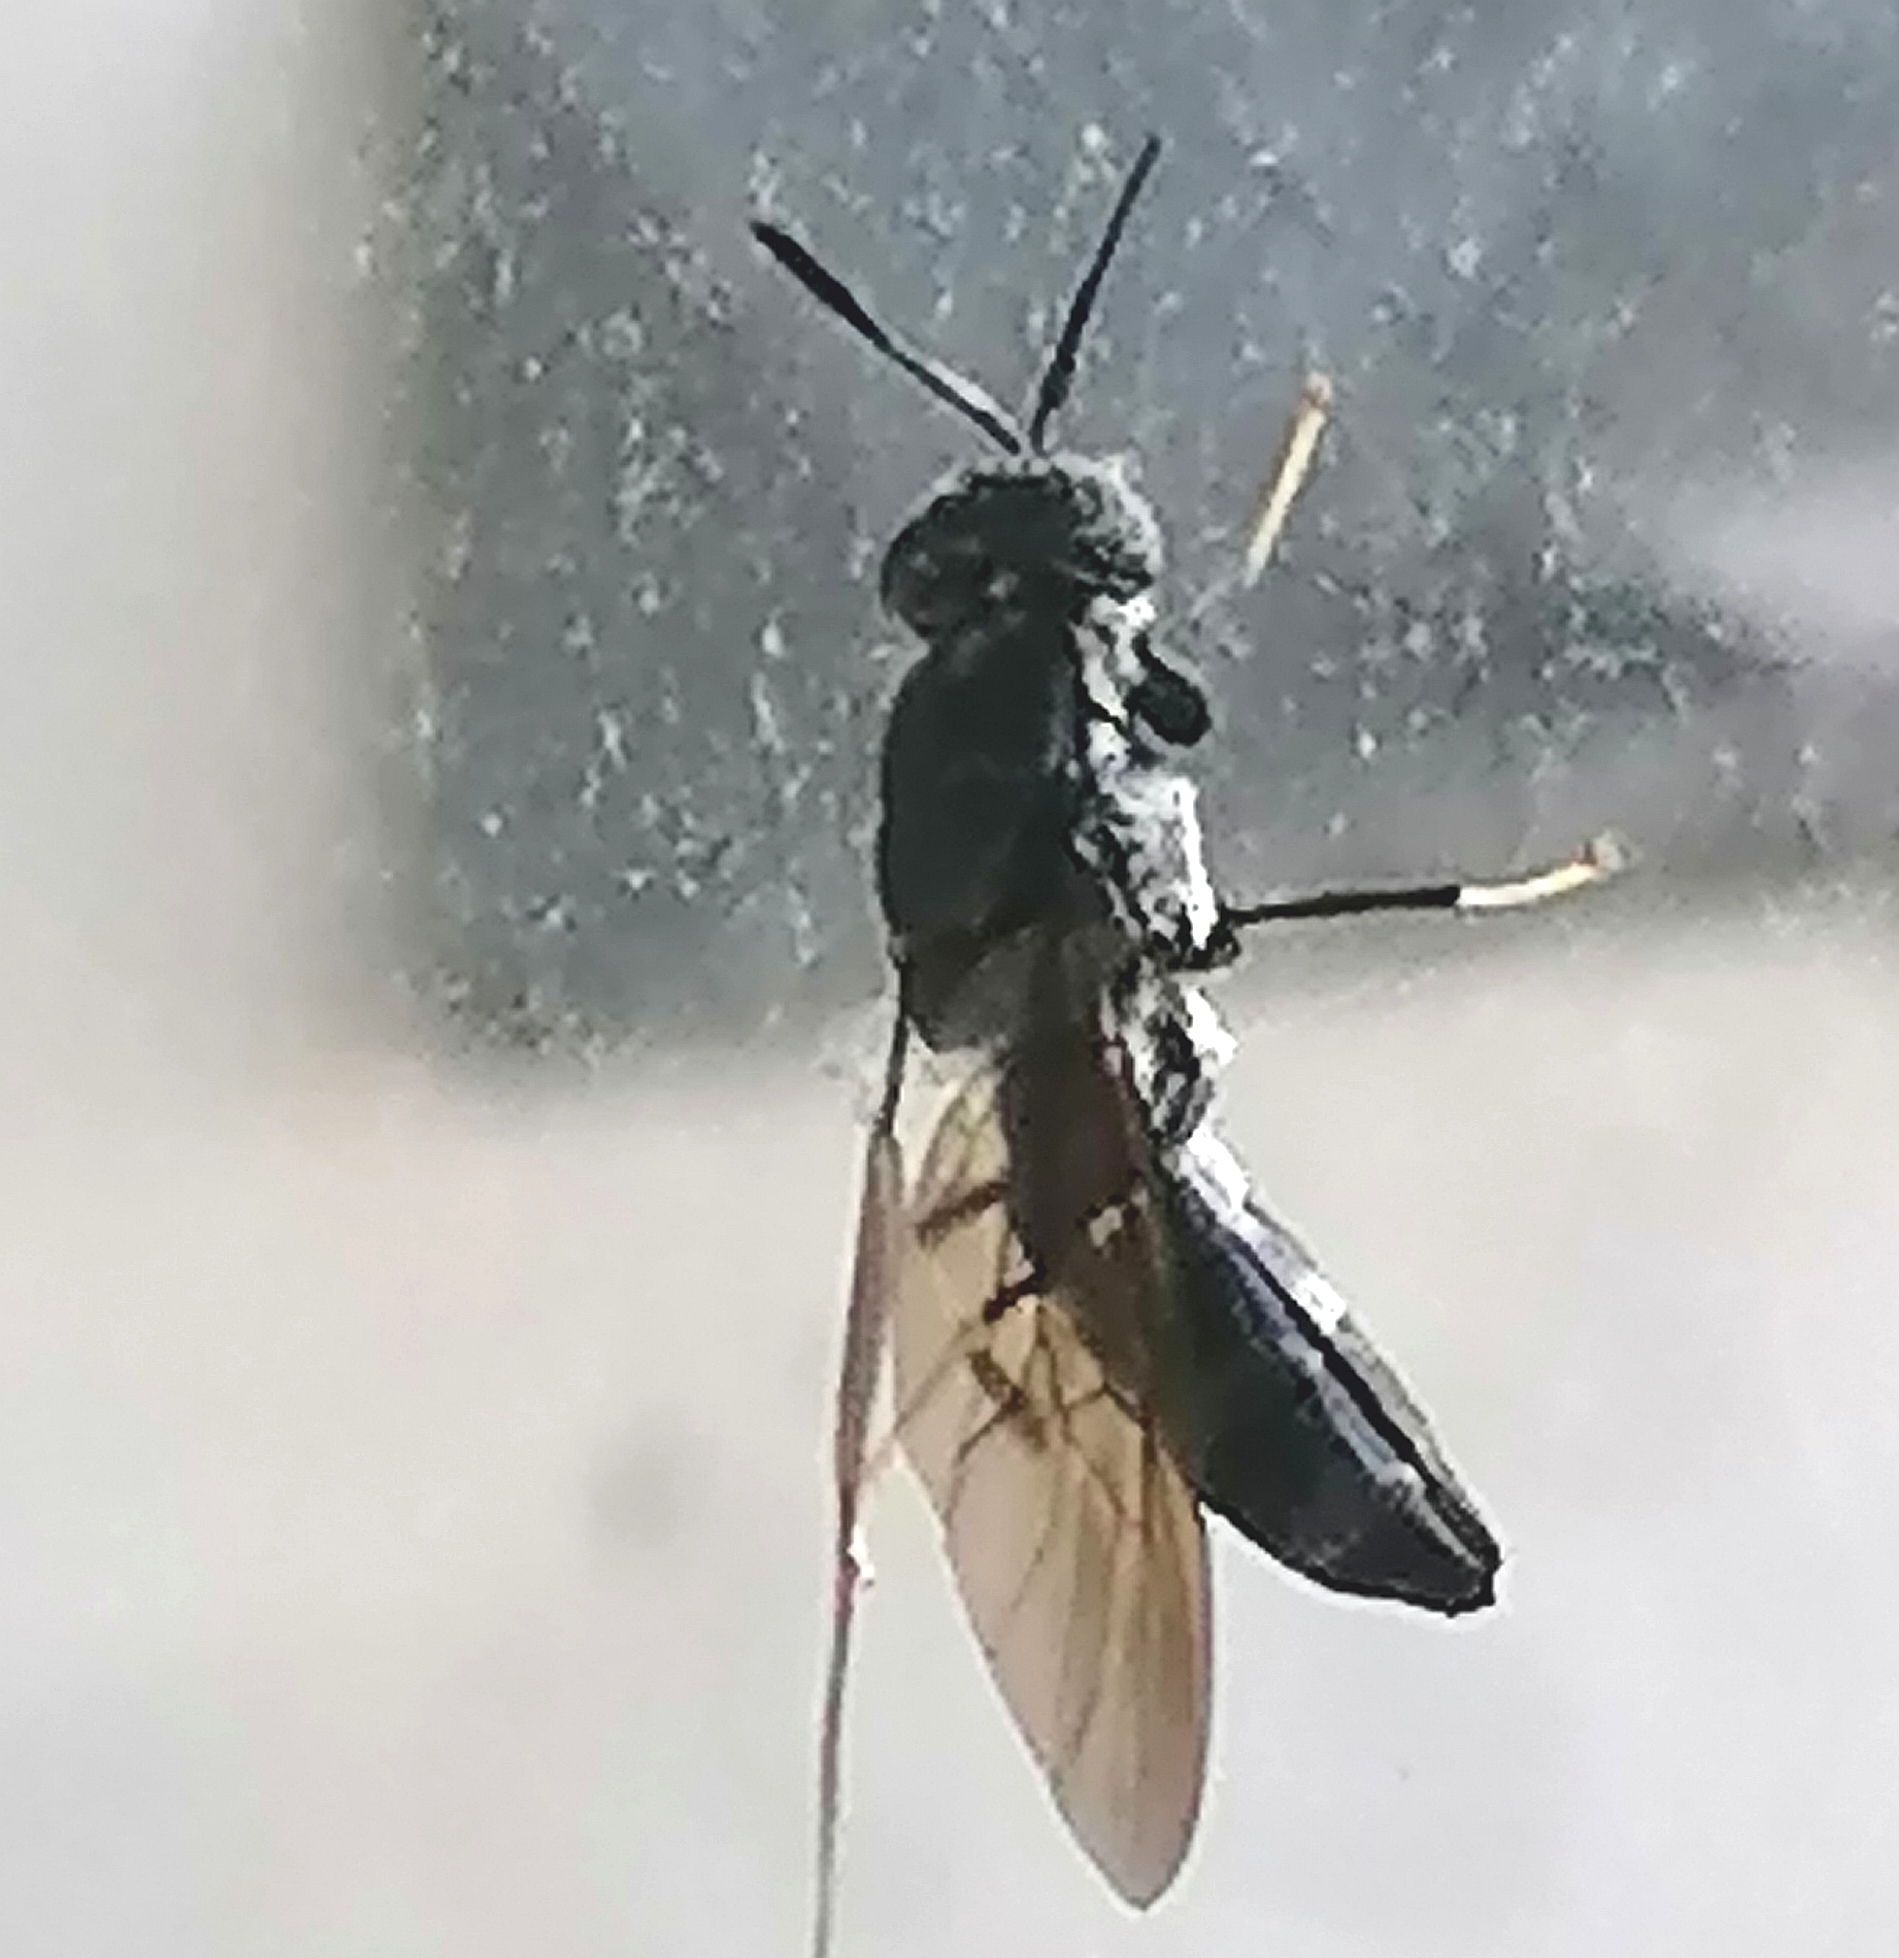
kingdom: Animalia
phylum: Arthropoda
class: Insecta
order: Diptera
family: Stratiomyidae
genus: Hermetia
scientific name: Hermetia illucens
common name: Black soldier fly
